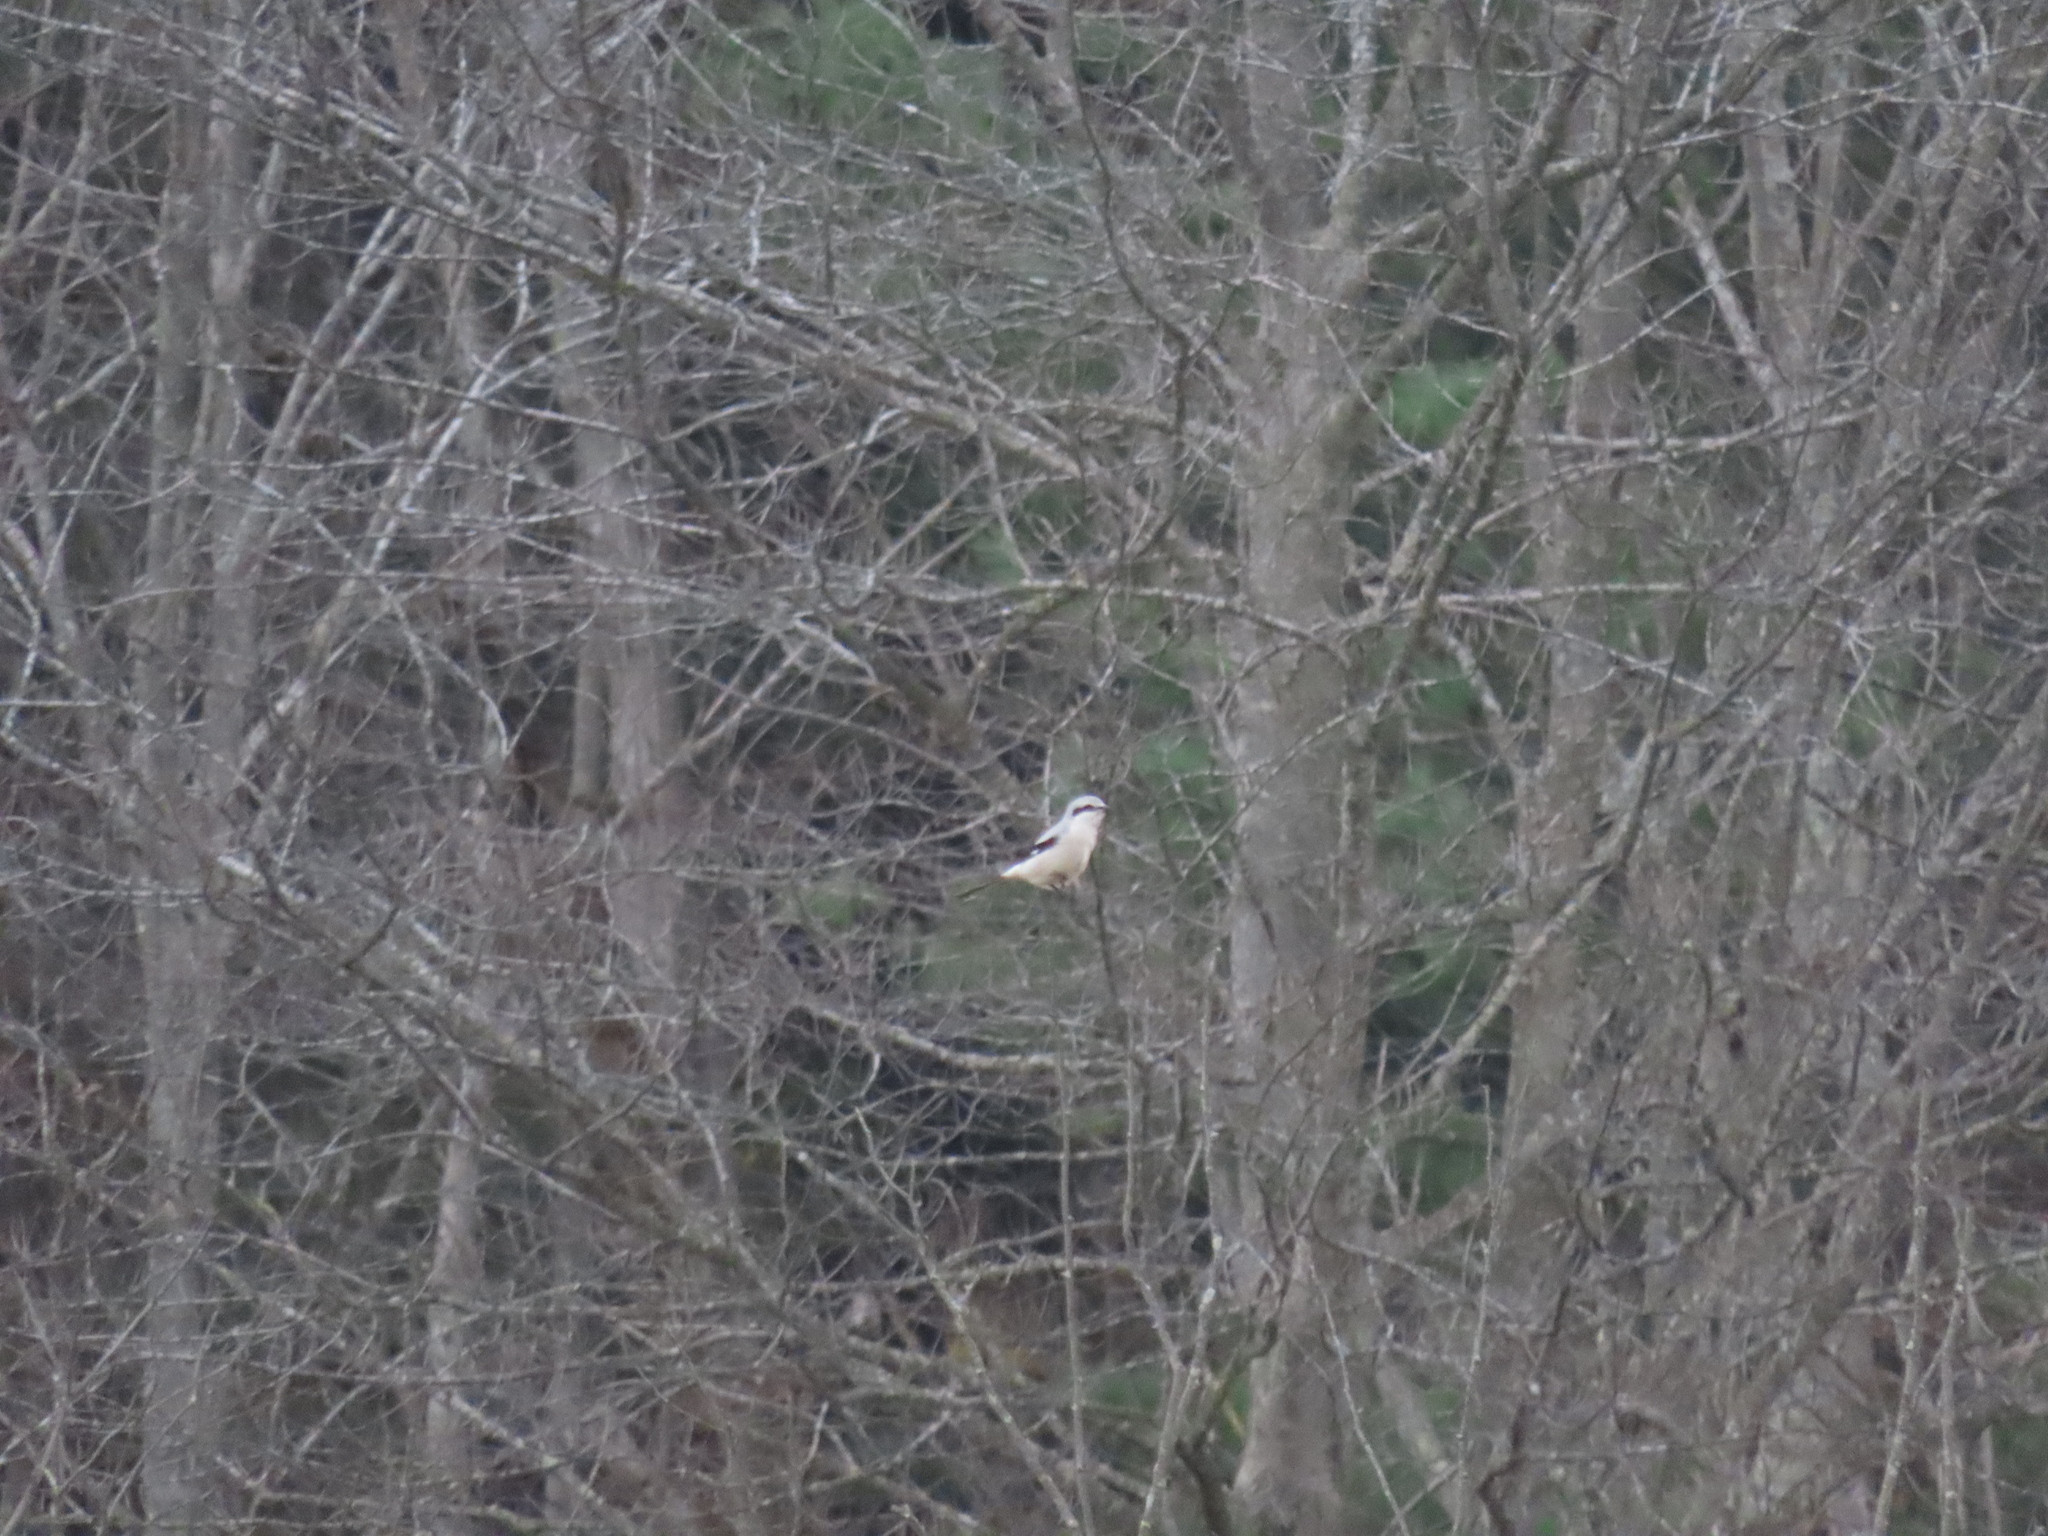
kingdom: Animalia
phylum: Chordata
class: Aves
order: Passeriformes
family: Laniidae
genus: Lanius
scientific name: Lanius borealis
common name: Northern shrike
